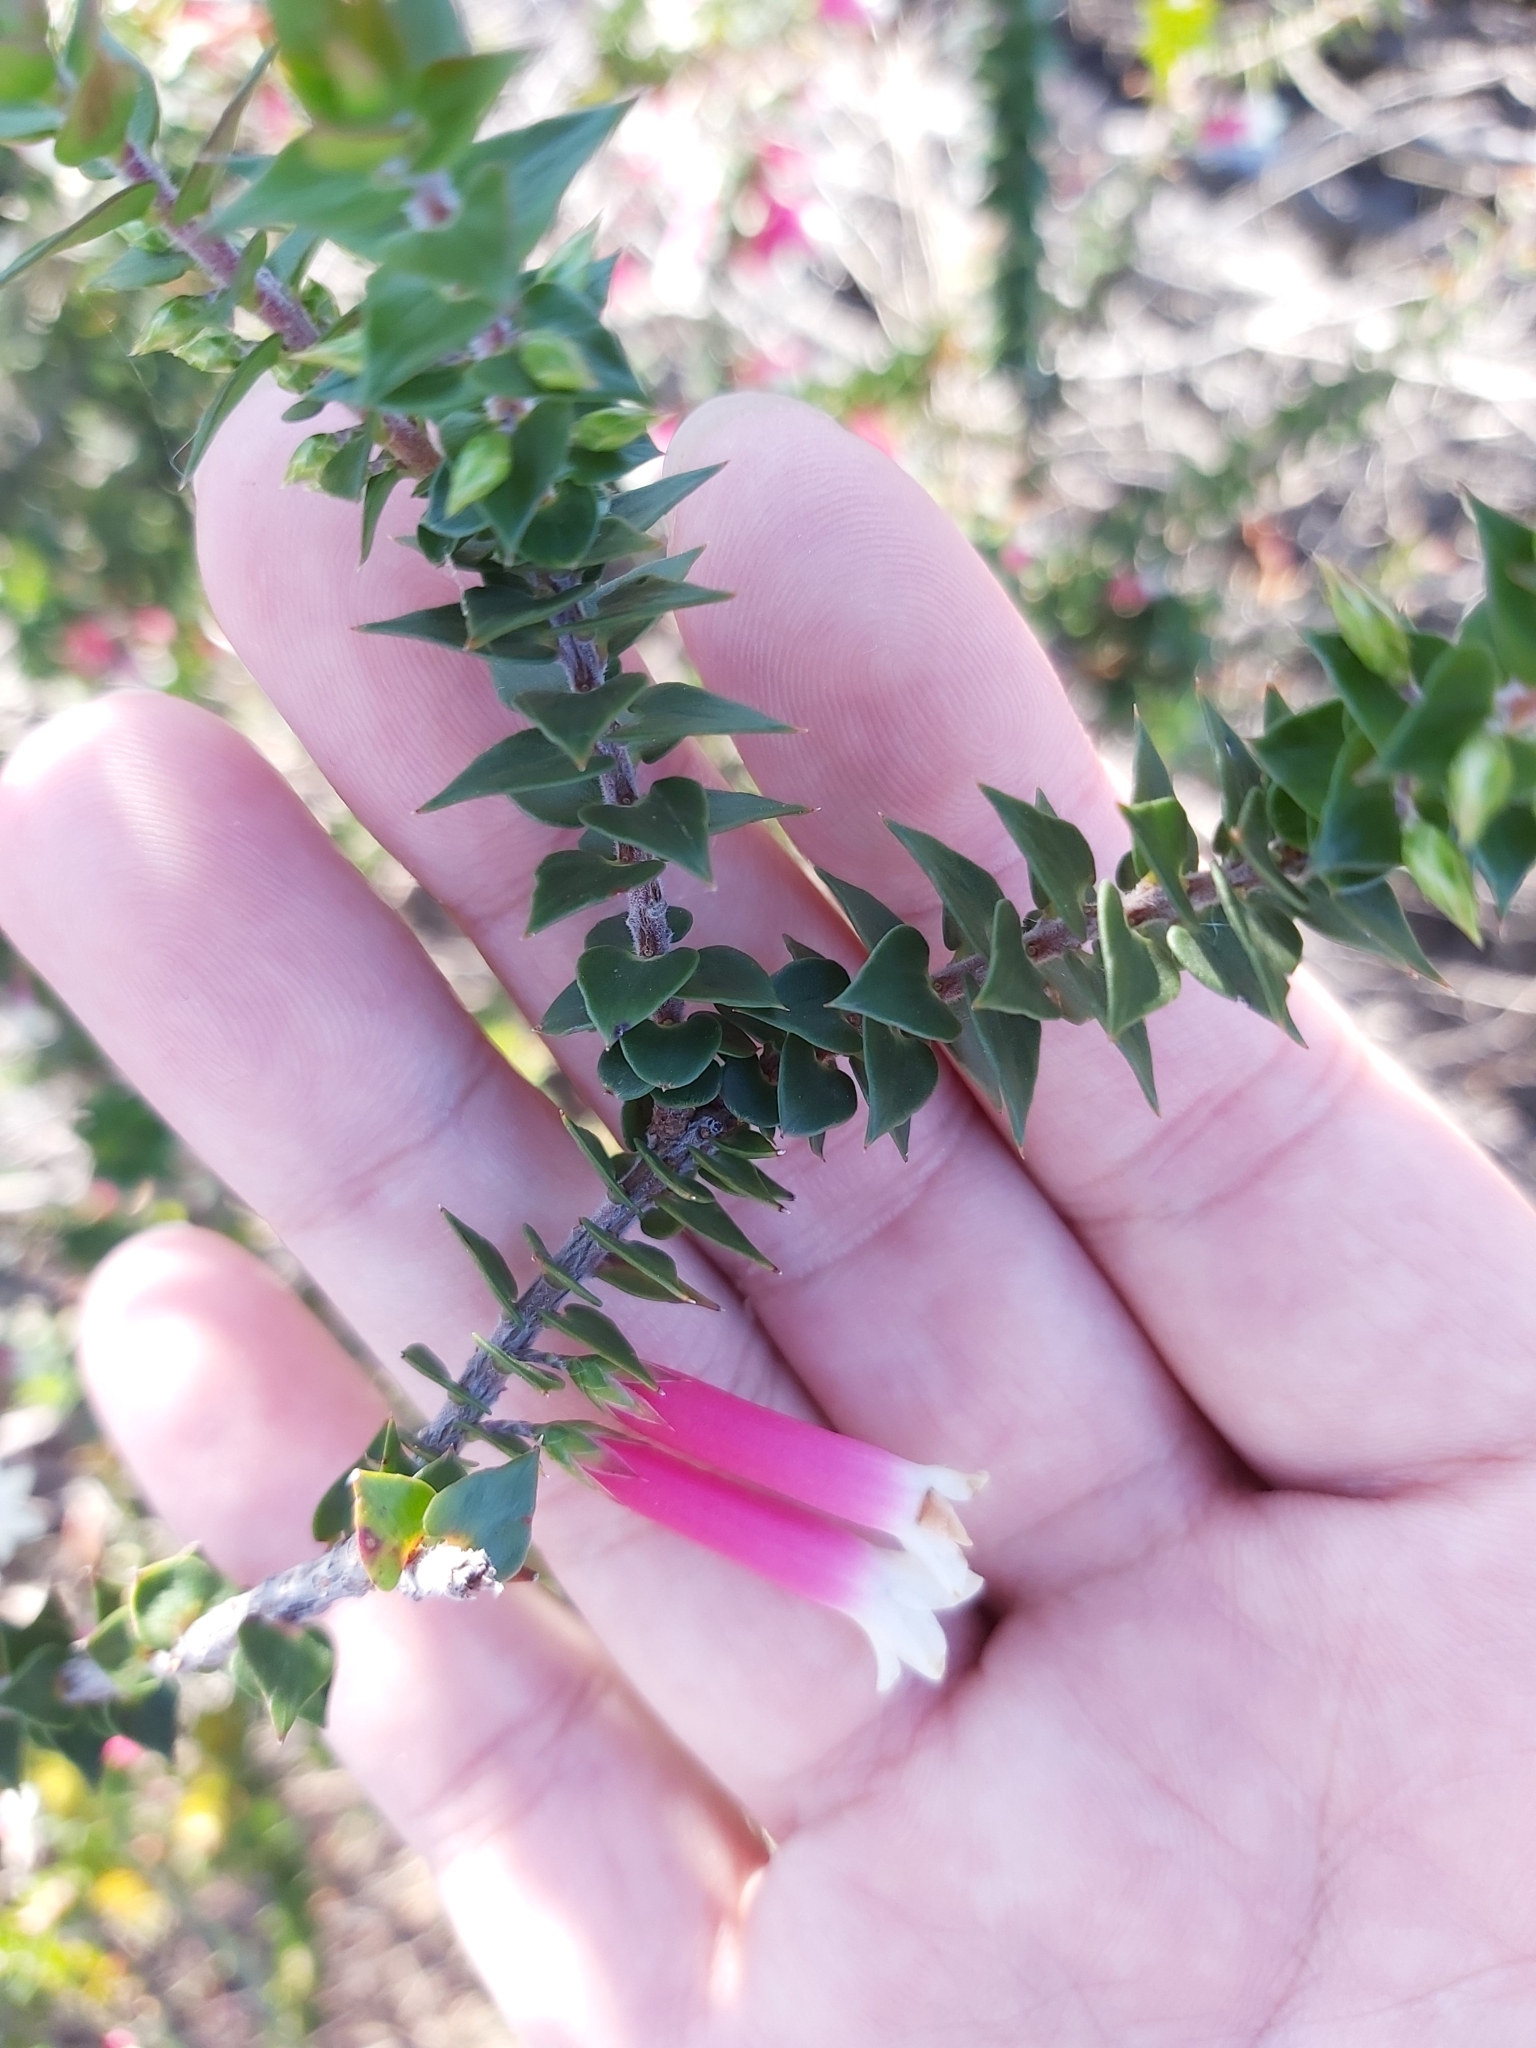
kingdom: Plantae
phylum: Tracheophyta
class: Magnoliopsida
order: Ericales
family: Ericaceae
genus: Epacris
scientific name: Epacris longiflora
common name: Fuchsia-heath
